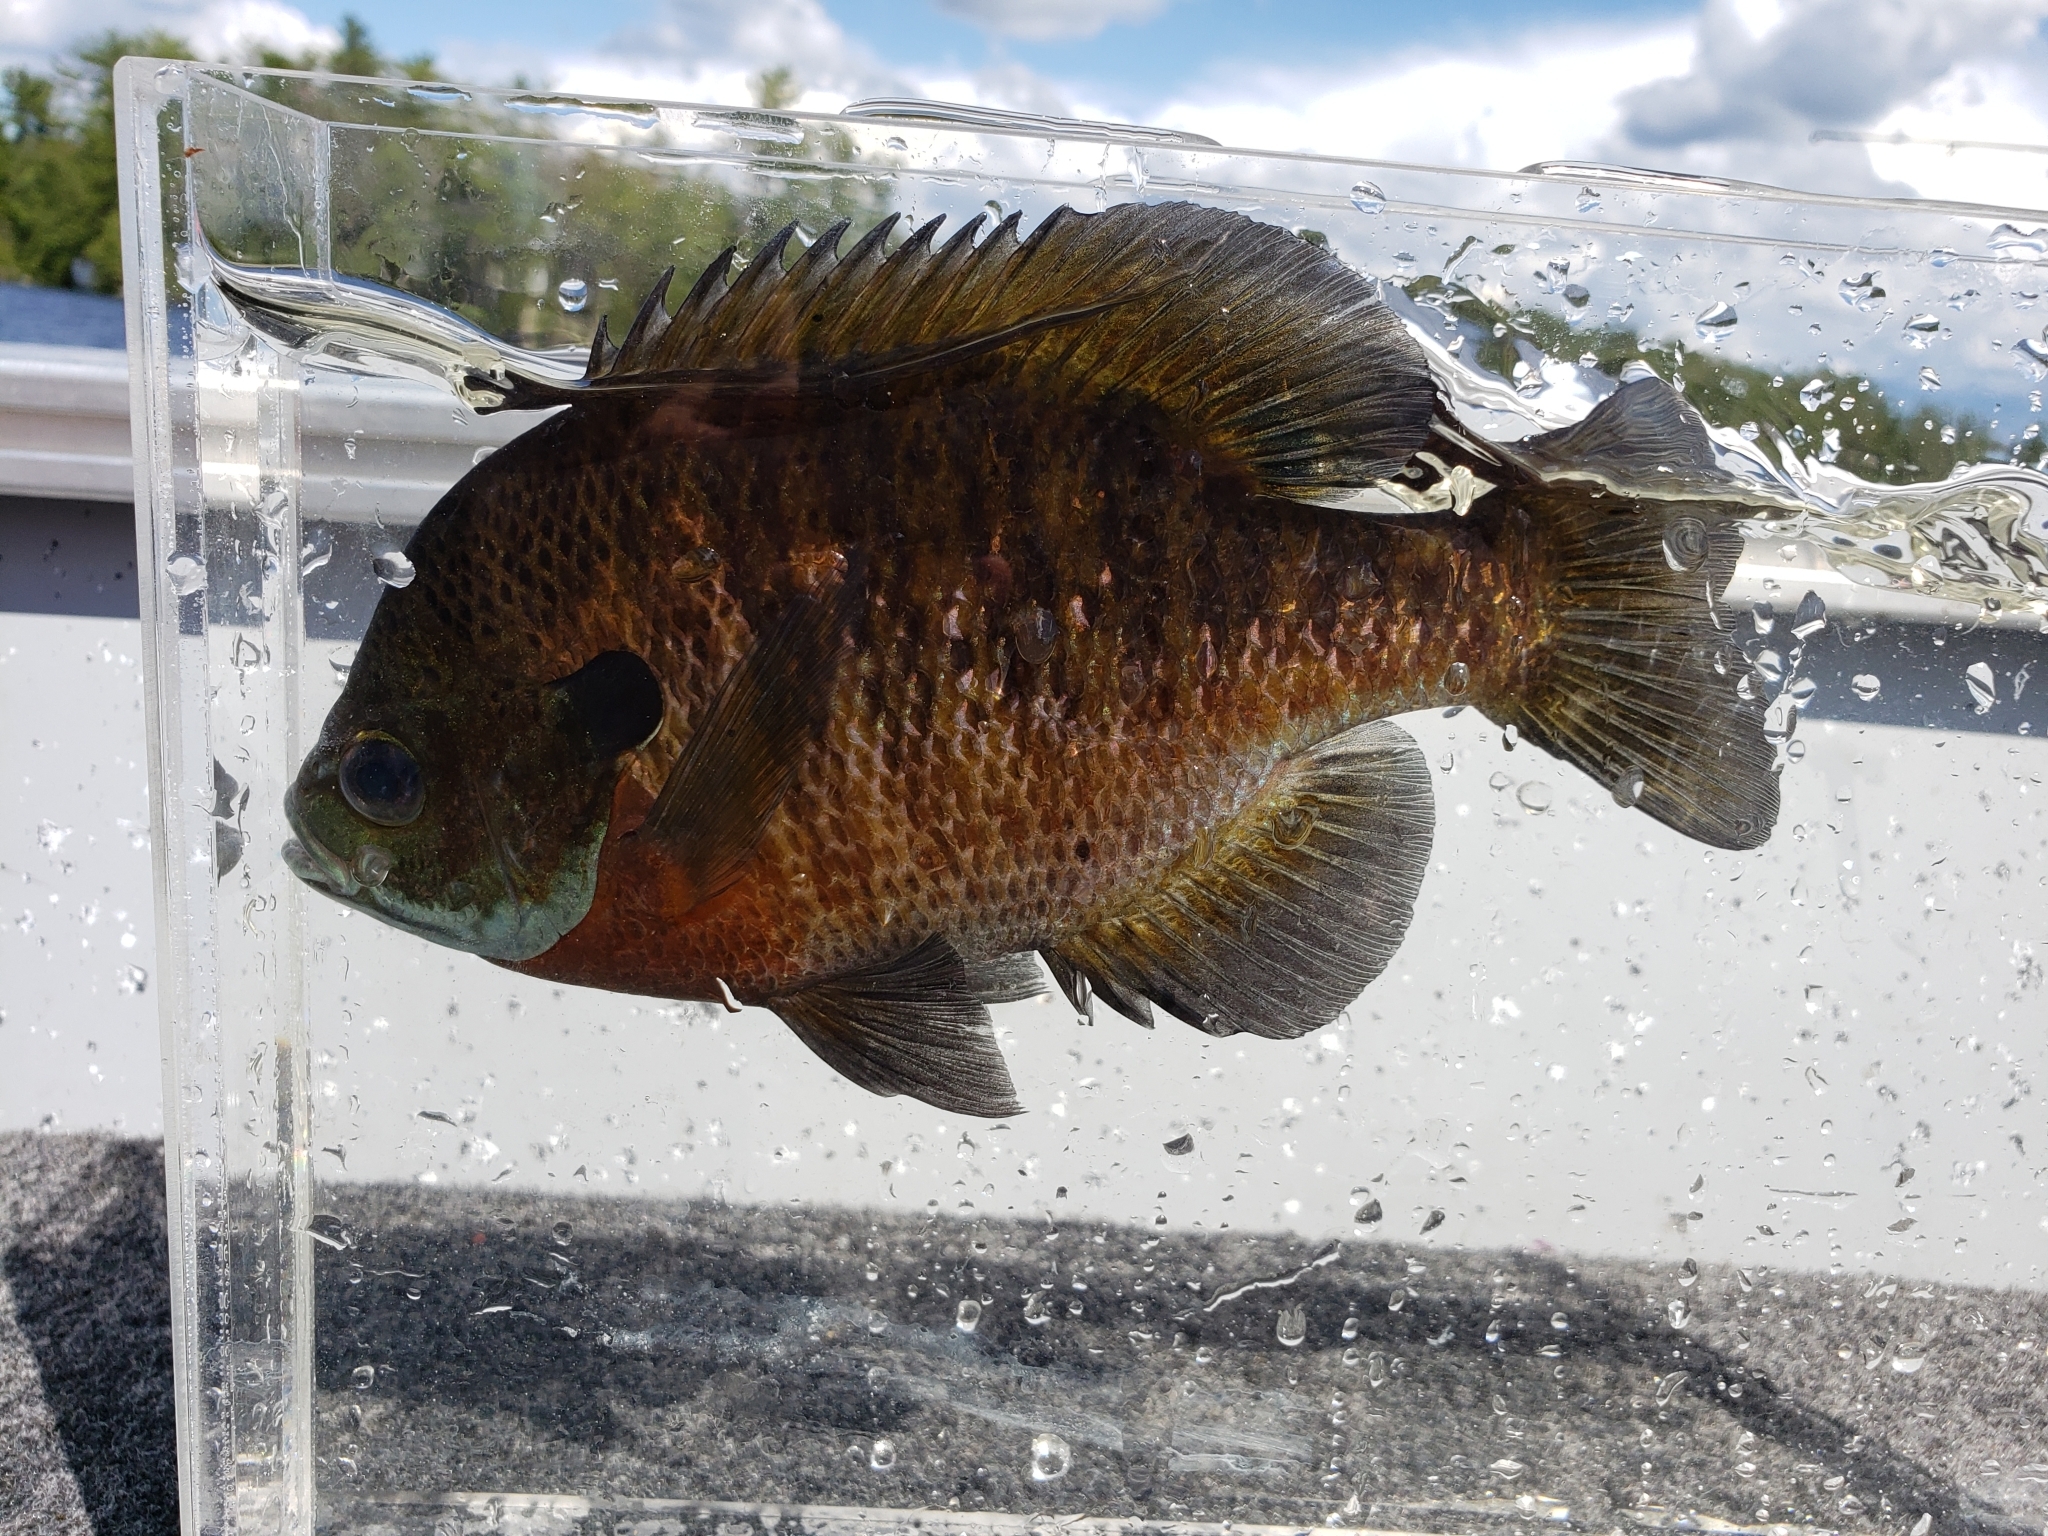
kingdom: Animalia
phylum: Chordata
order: Perciformes
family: Centrarchidae
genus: Lepomis
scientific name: Lepomis macrochirus
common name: Bluegill
